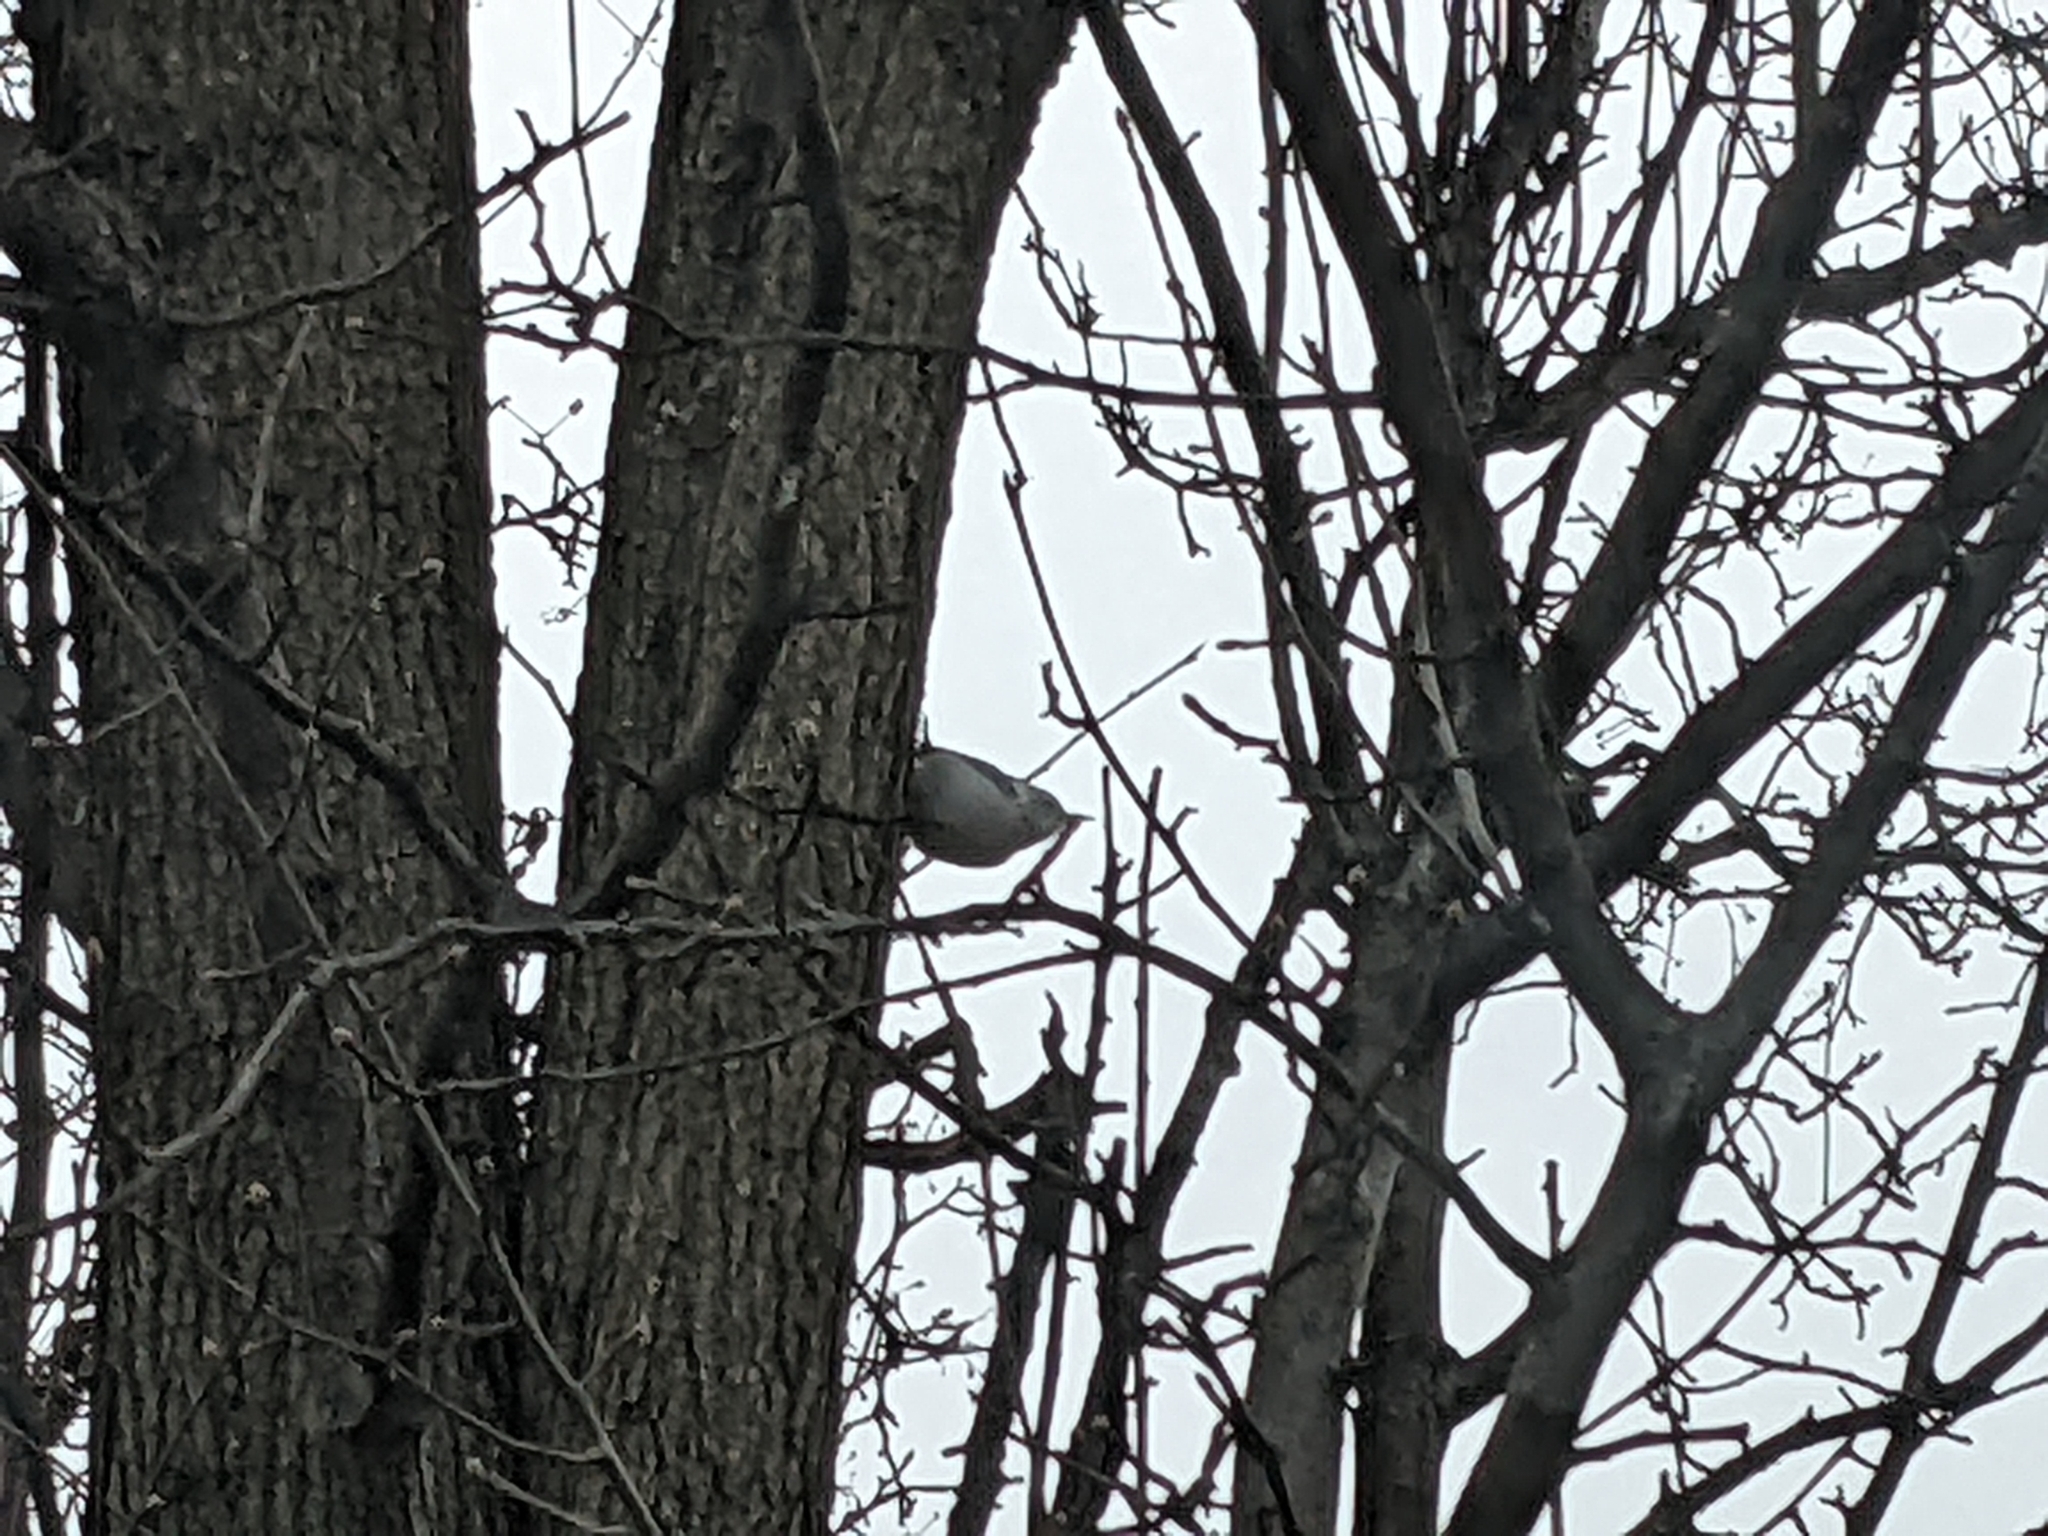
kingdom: Animalia
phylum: Chordata
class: Aves
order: Passeriformes
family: Sittidae
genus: Sitta
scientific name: Sitta carolinensis
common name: White-breasted nuthatch
